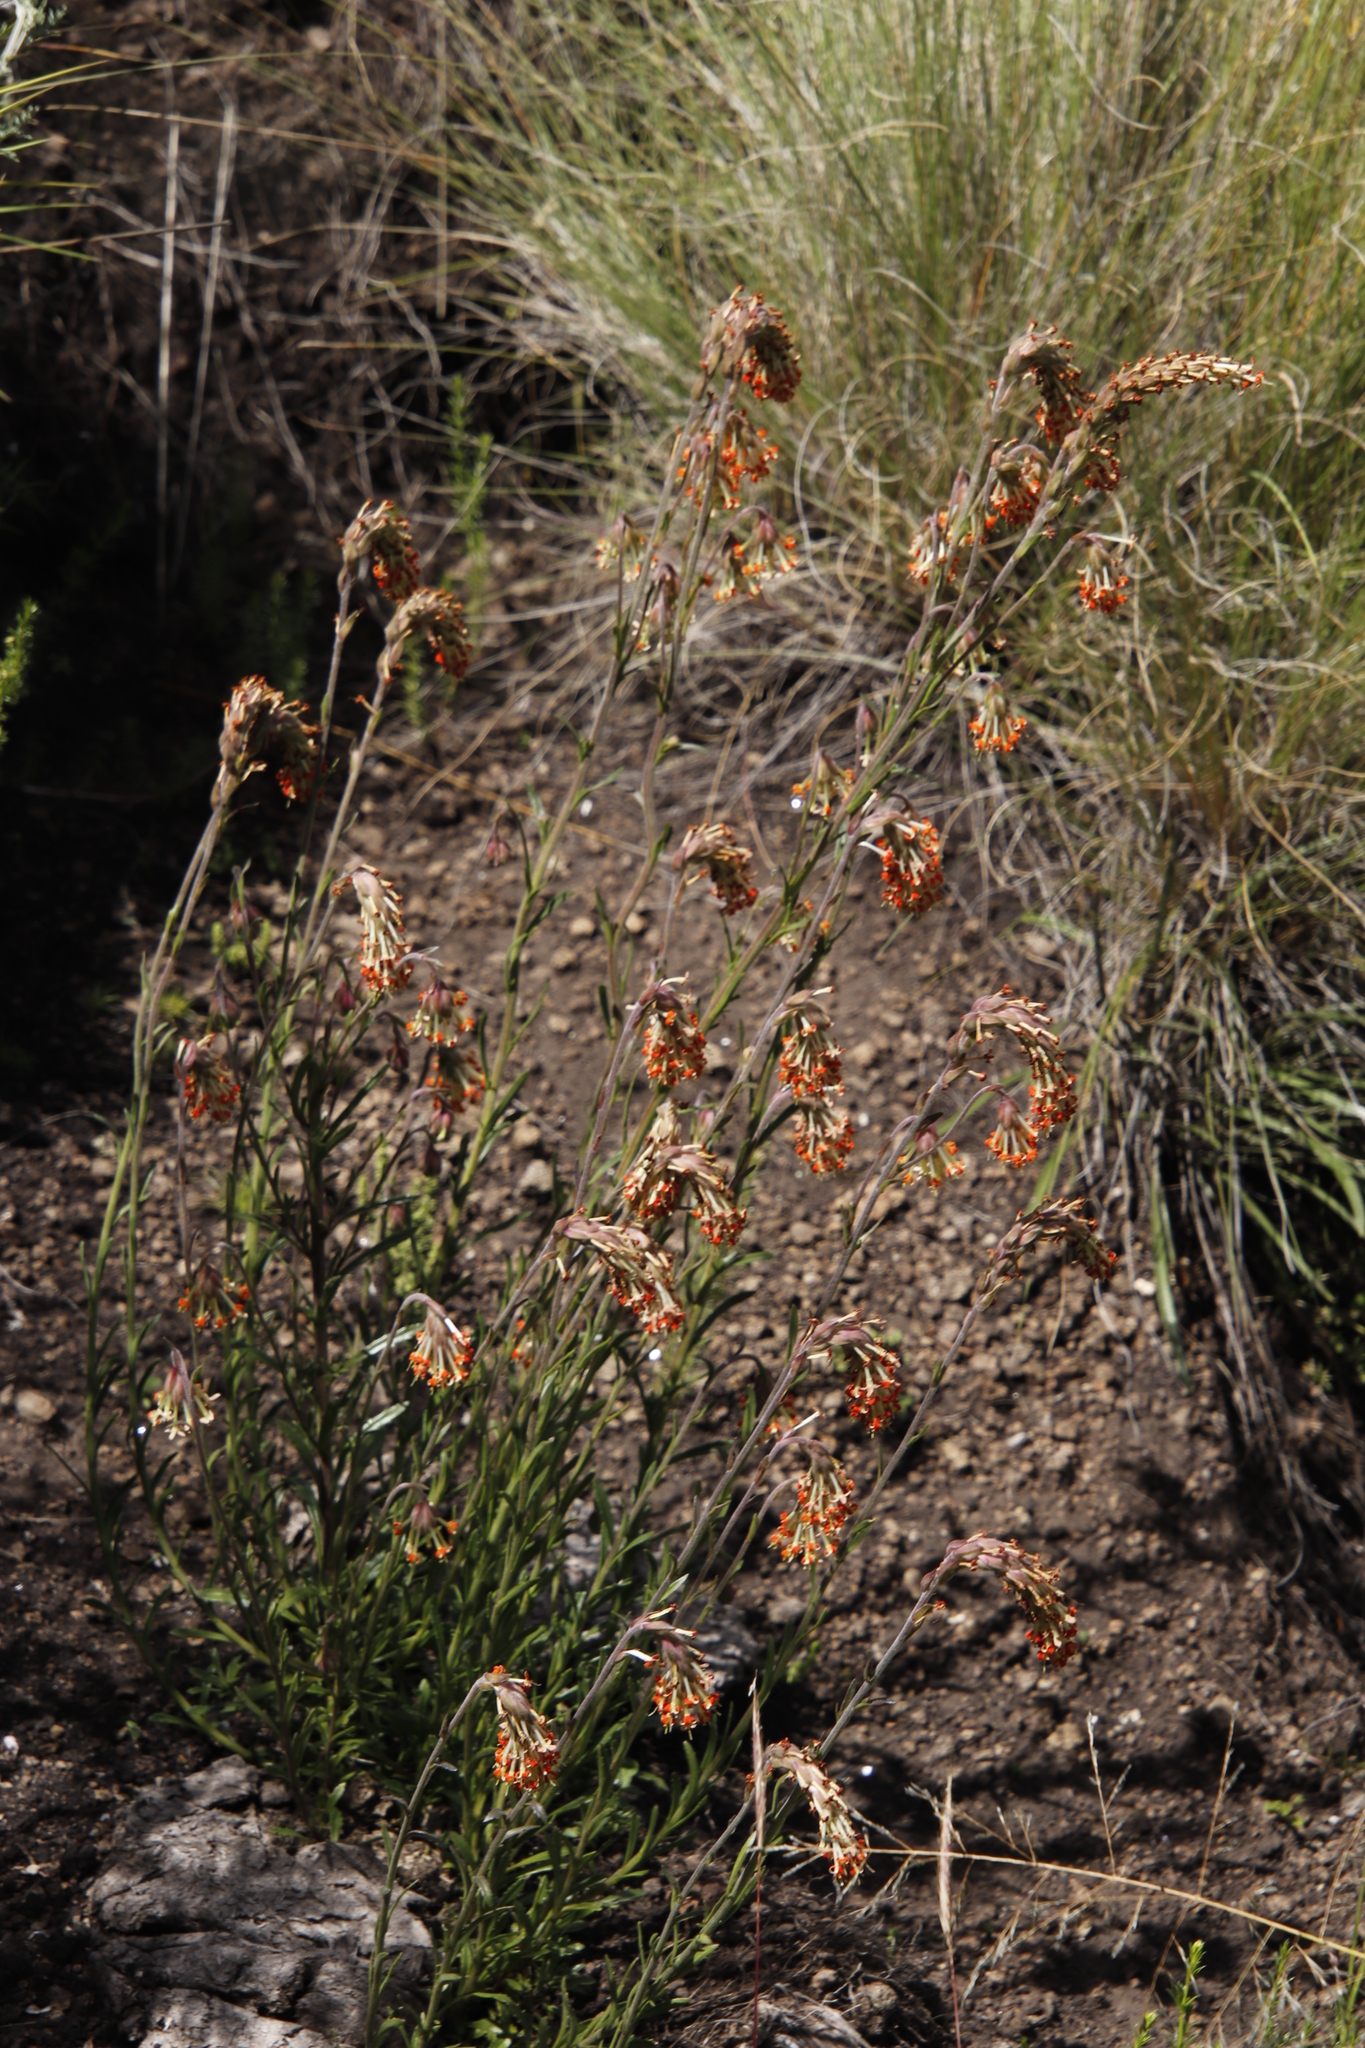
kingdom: Plantae
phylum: Tracheophyta
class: Magnoliopsida
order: Lamiales
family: Scrophulariaceae
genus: Glumicalyx
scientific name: Glumicalyx nutans
